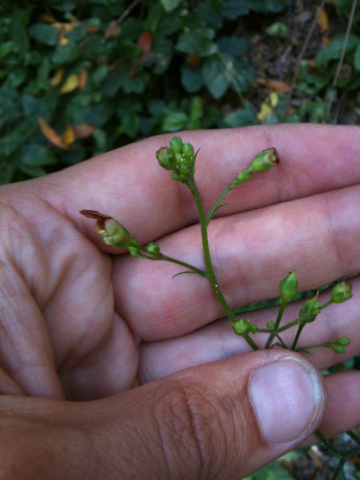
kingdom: Plantae
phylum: Tracheophyta
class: Magnoliopsida
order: Lamiales
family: Scrophulariaceae
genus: Scrophularia
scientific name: Scrophularia californica
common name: California figwort
